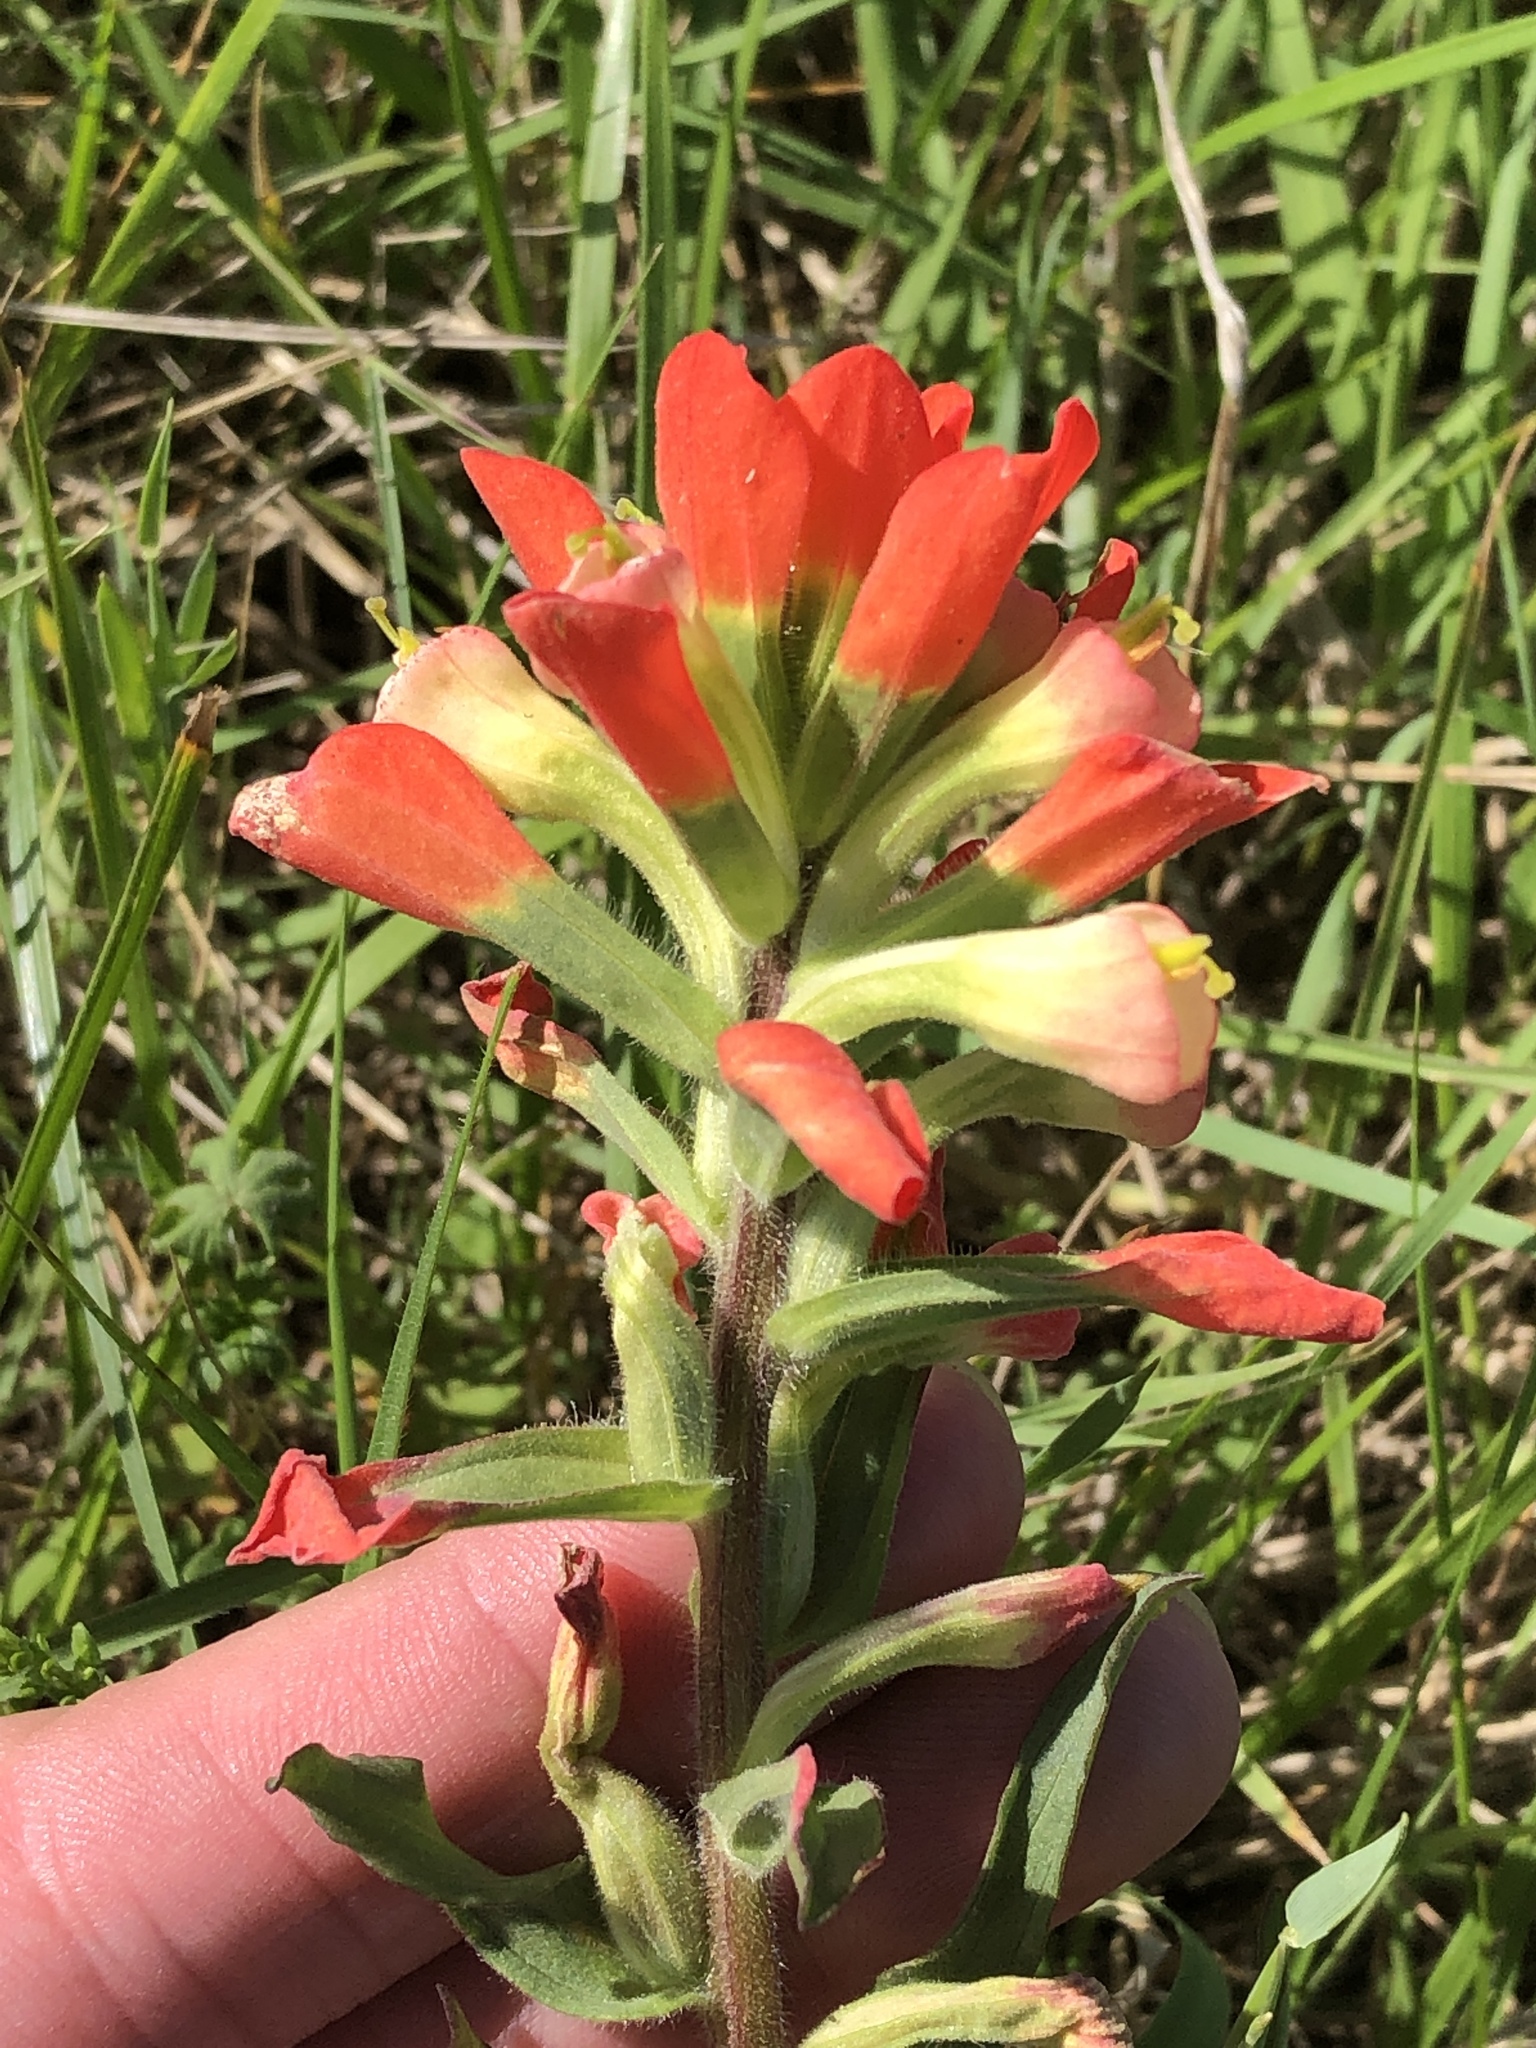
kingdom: Plantae
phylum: Tracheophyta
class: Magnoliopsida
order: Lamiales
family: Orobanchaceae
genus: Castilleja
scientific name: Castilleja indivisa
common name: Texas paintbrush
